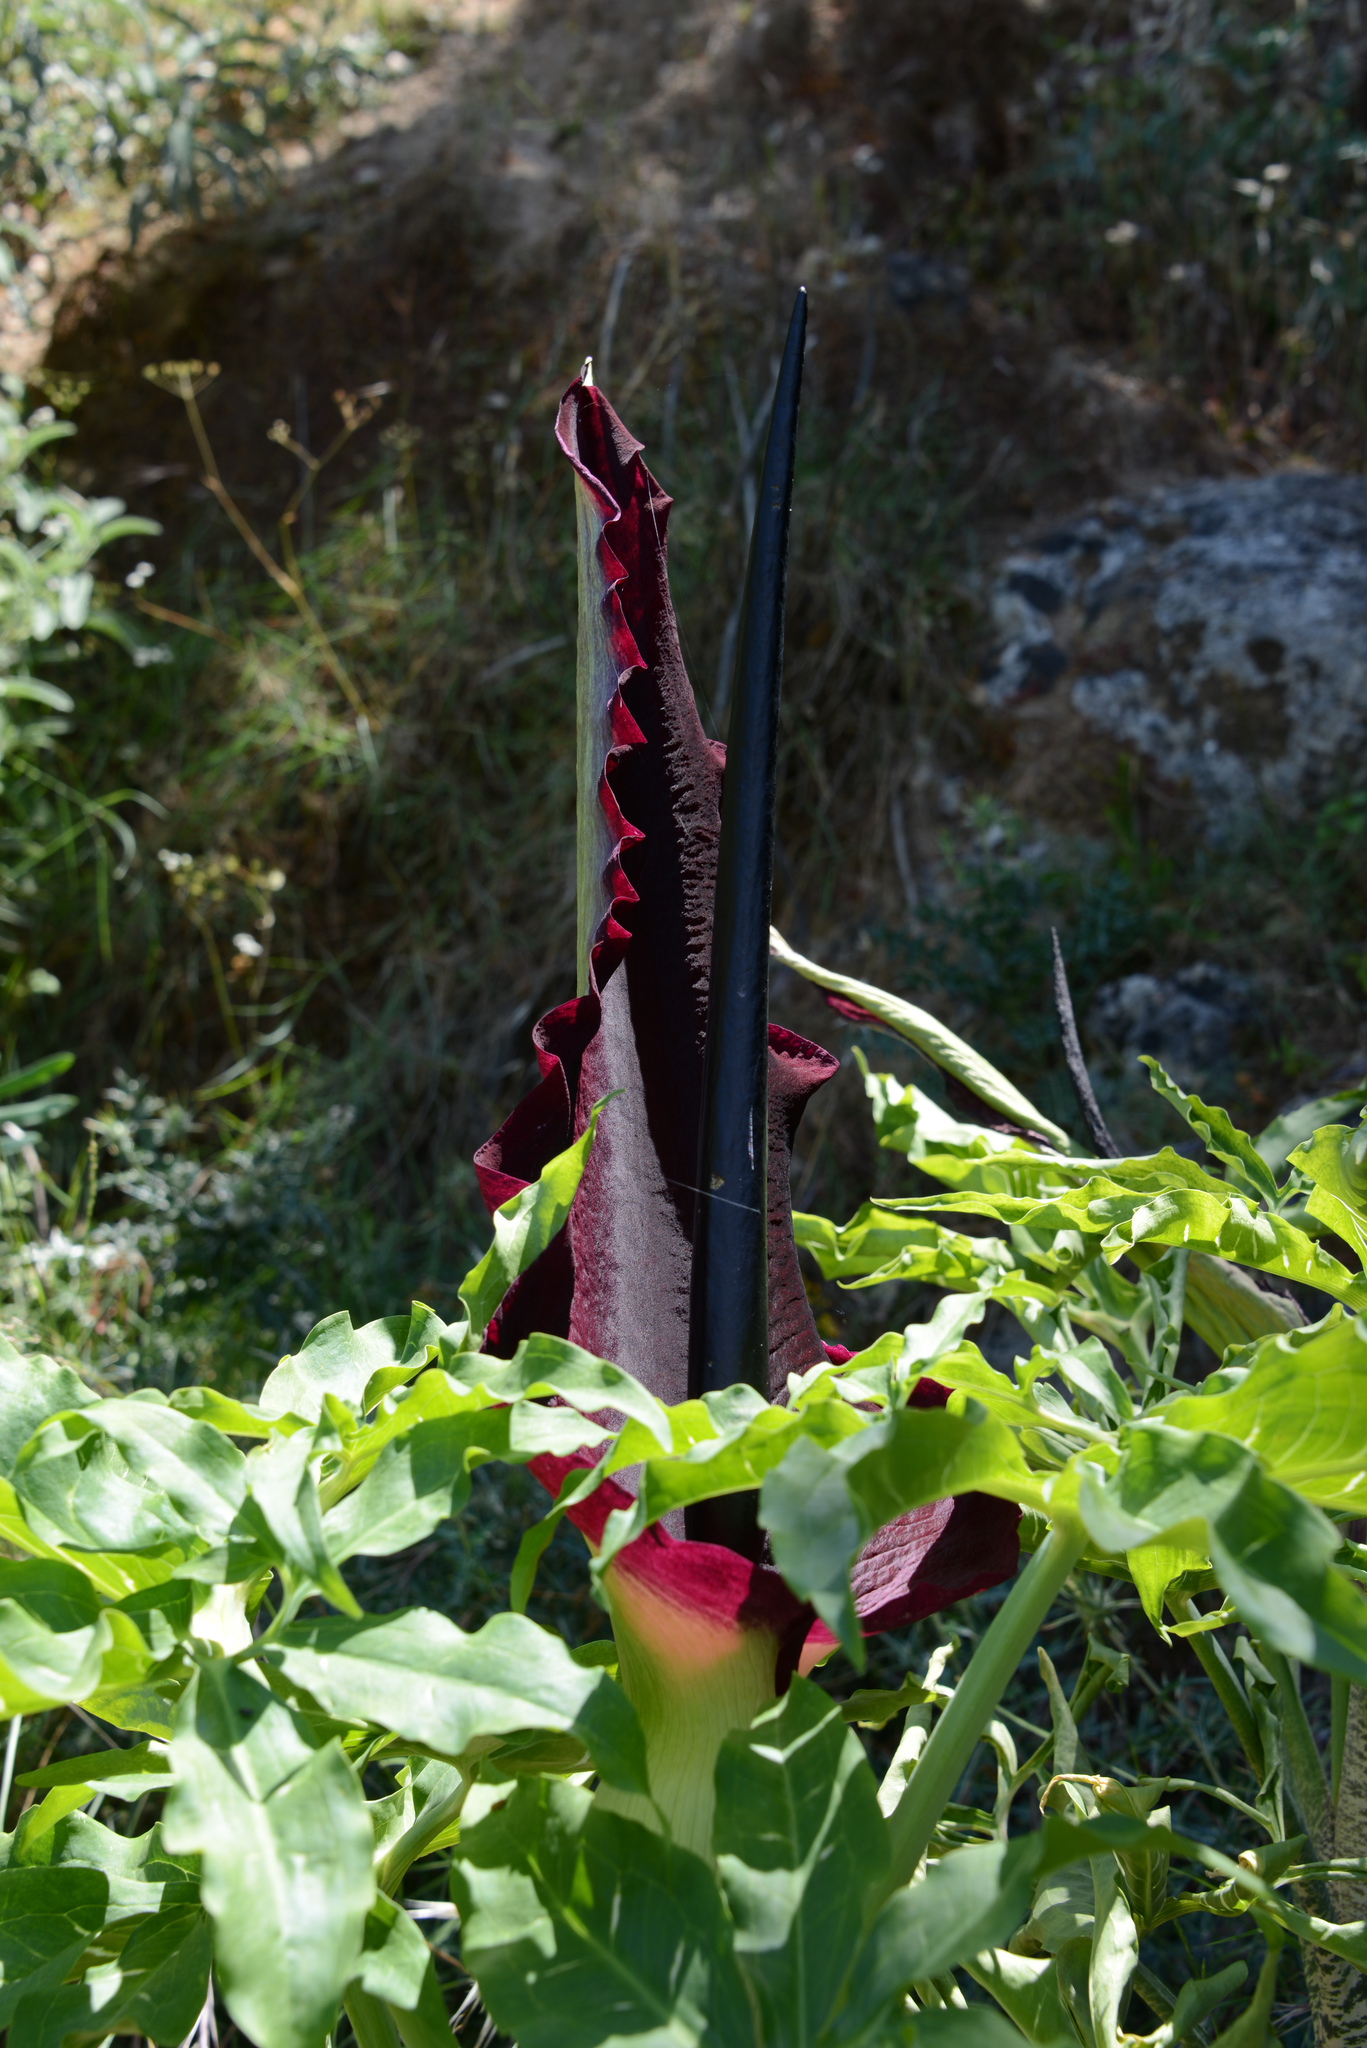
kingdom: Plantae
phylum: Tracheophyta
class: Liliopsida
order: Alismatales
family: Araceae
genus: Dracunculus
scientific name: Dracunculus vulgaris
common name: Dragon arum
